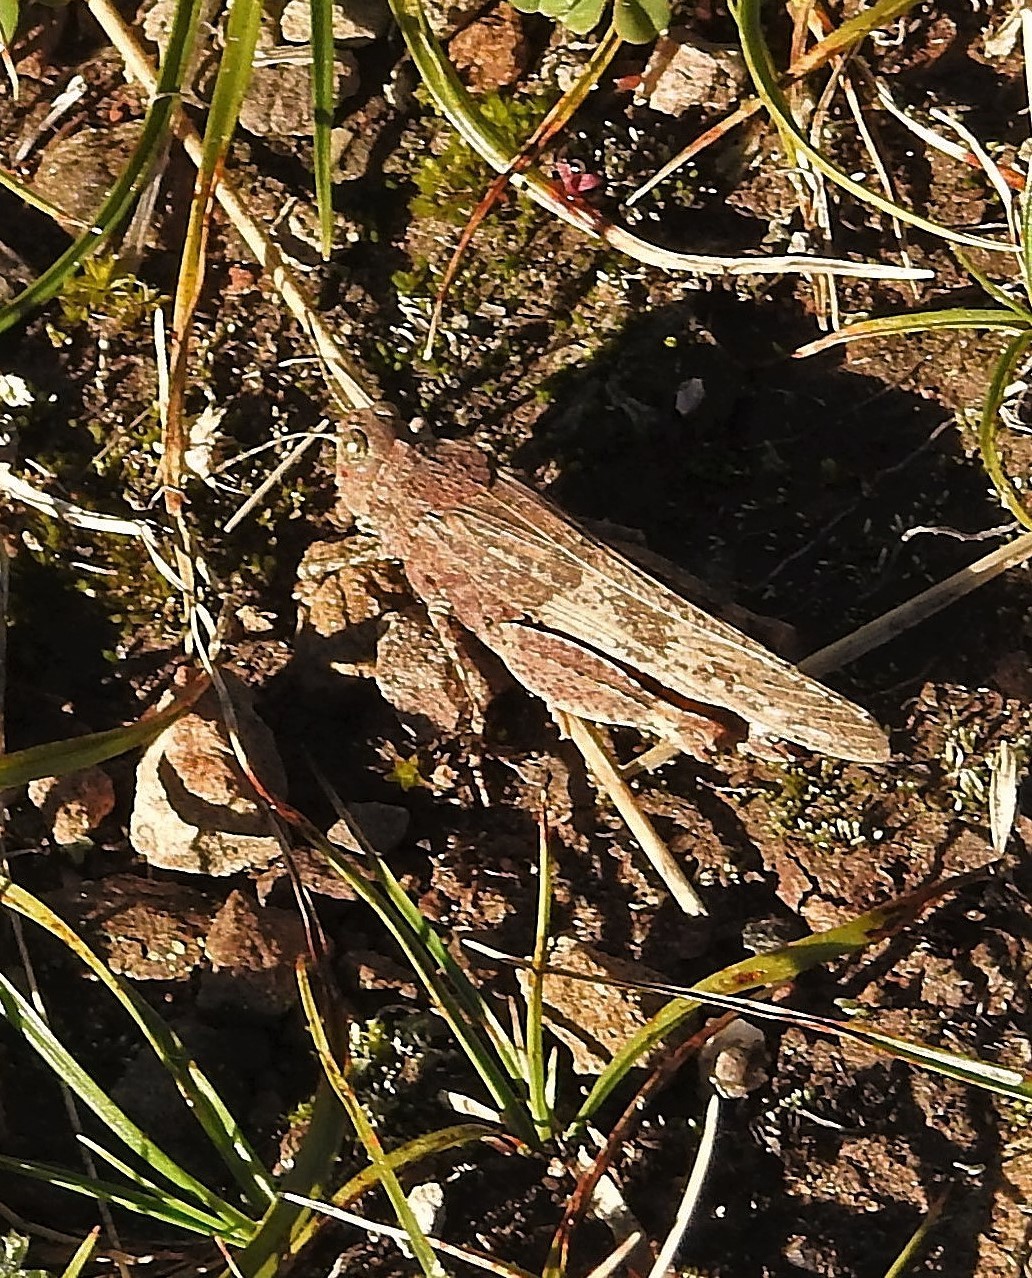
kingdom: Animalia
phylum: Arthropoda
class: Insecta
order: Orthoptera
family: Acrididae
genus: Trimerotropis
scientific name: Trimerotropis pallidipennis
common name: Pallid-winged grasshopper
